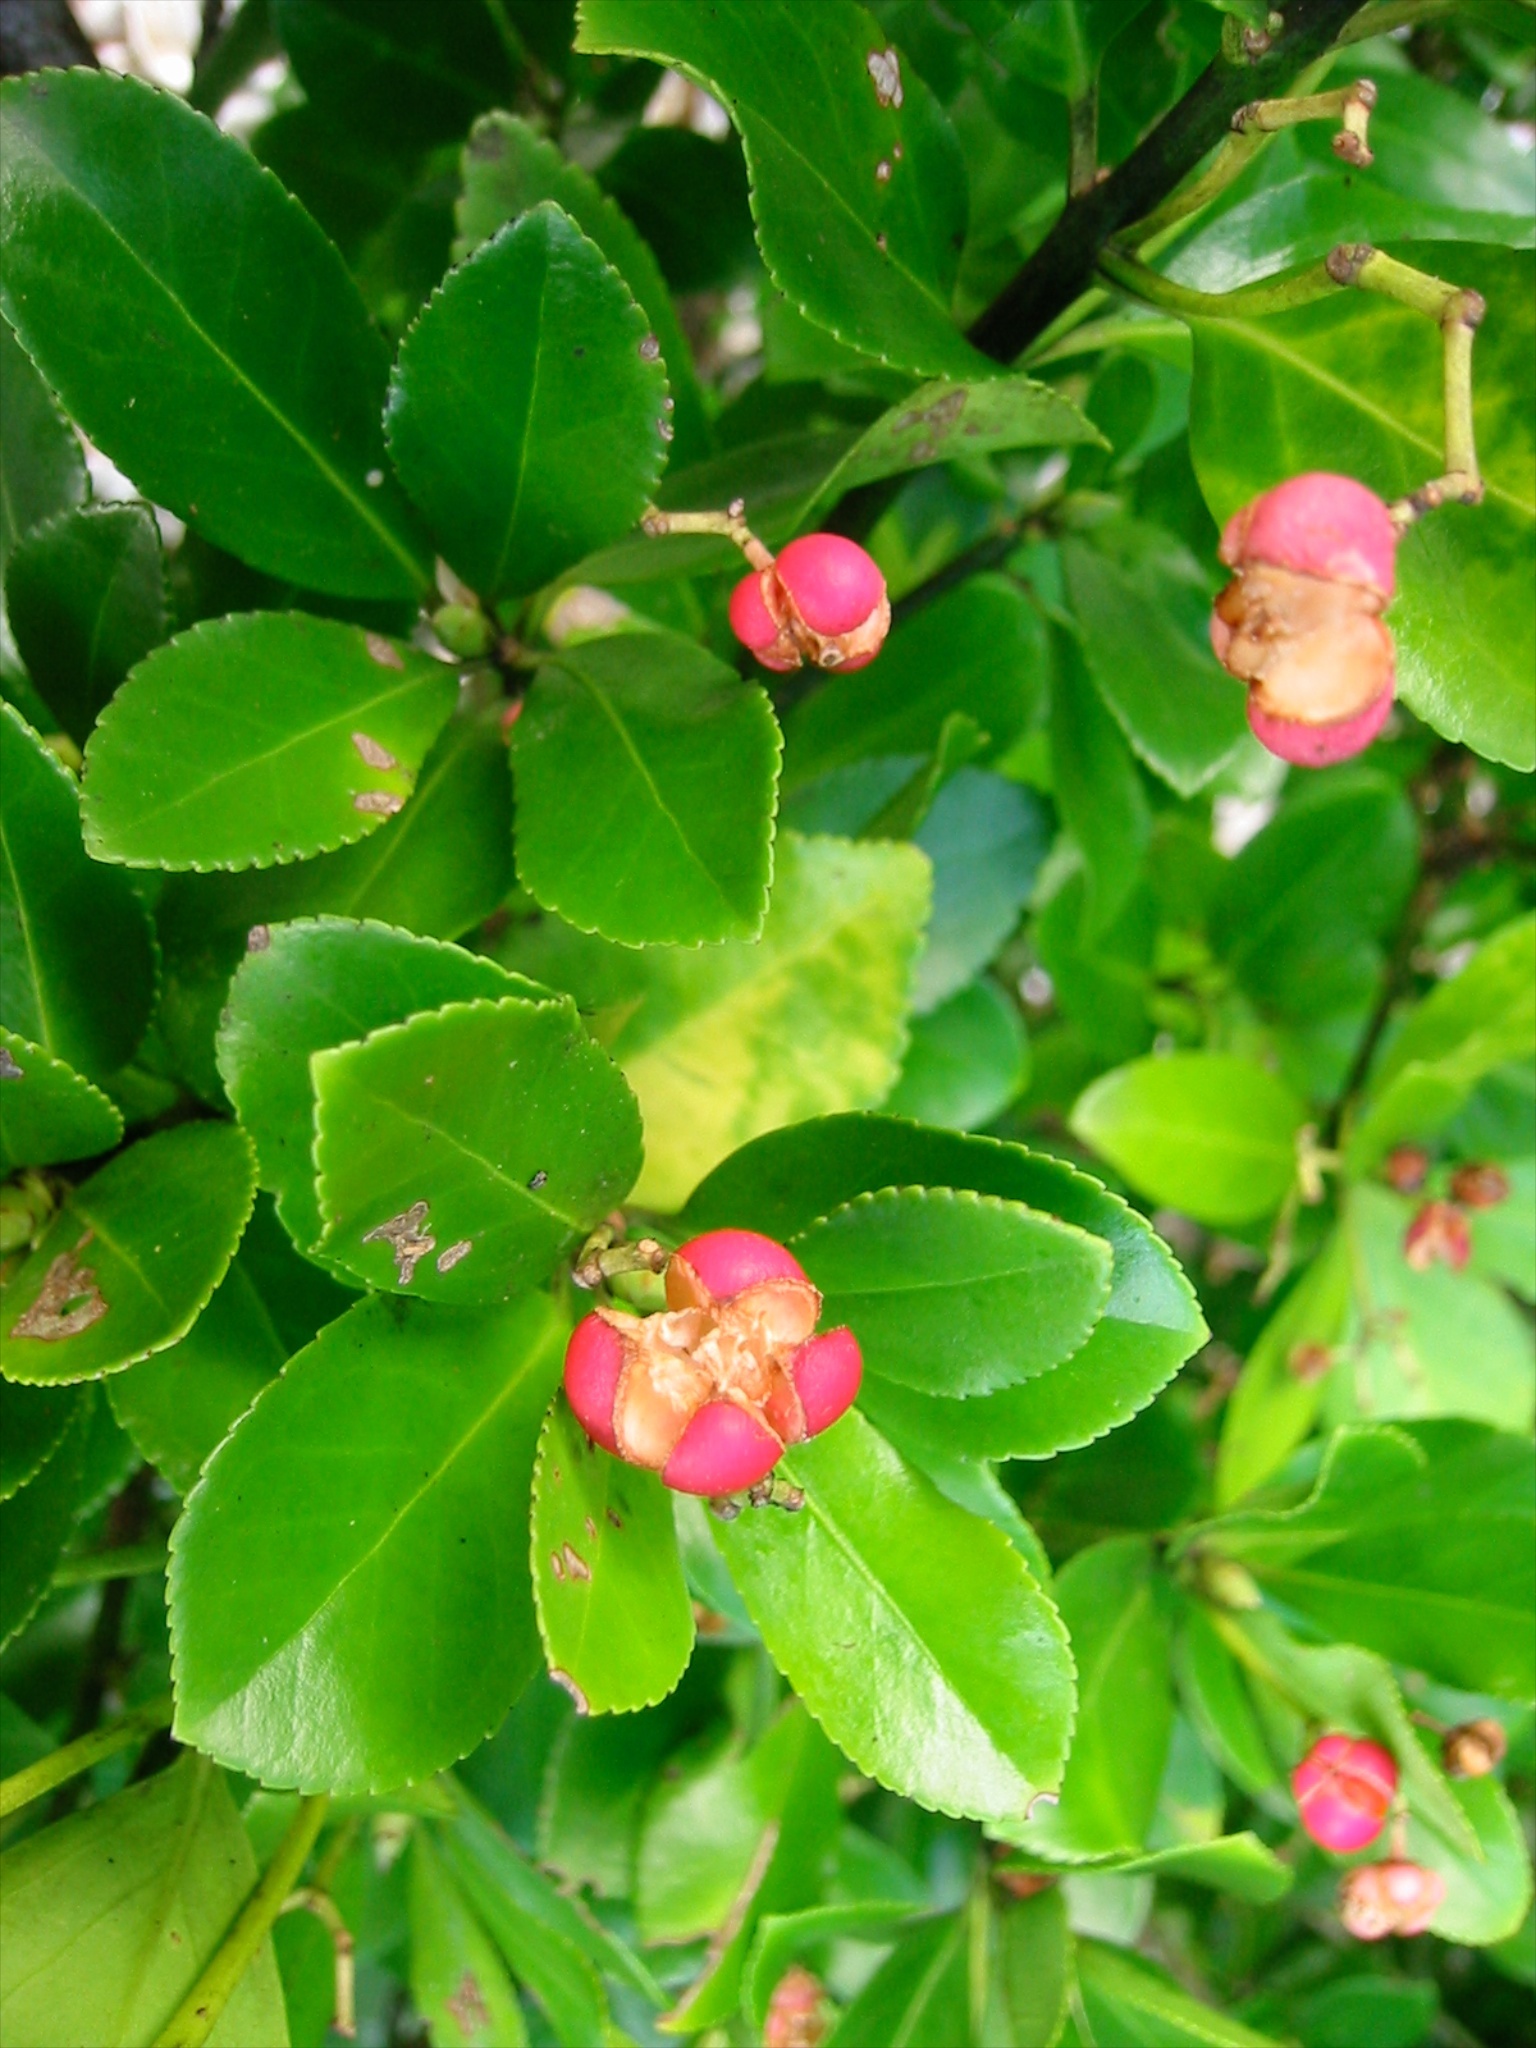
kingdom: Plantae
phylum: Tracheophyta
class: Magnoliopsida
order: Celastrales
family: Celastraceae
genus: Euonymus
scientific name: Euonymus japonicus
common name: Japanese spindletree
